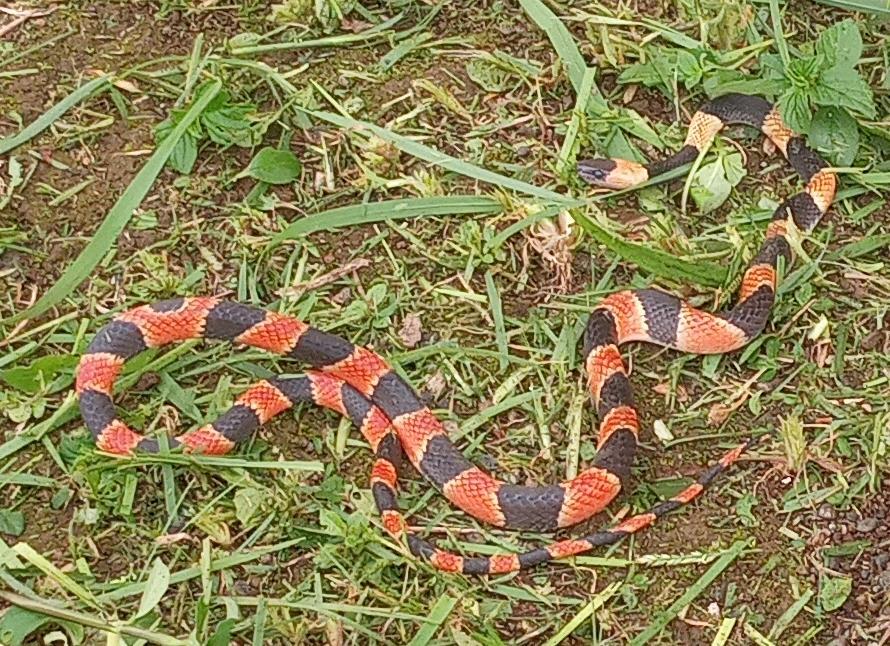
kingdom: Animalia
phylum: Chordata
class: Squamata
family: Colubridae
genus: Oxyrhopus
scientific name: Oxyrhopus petolarius
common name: Forest flame snake
